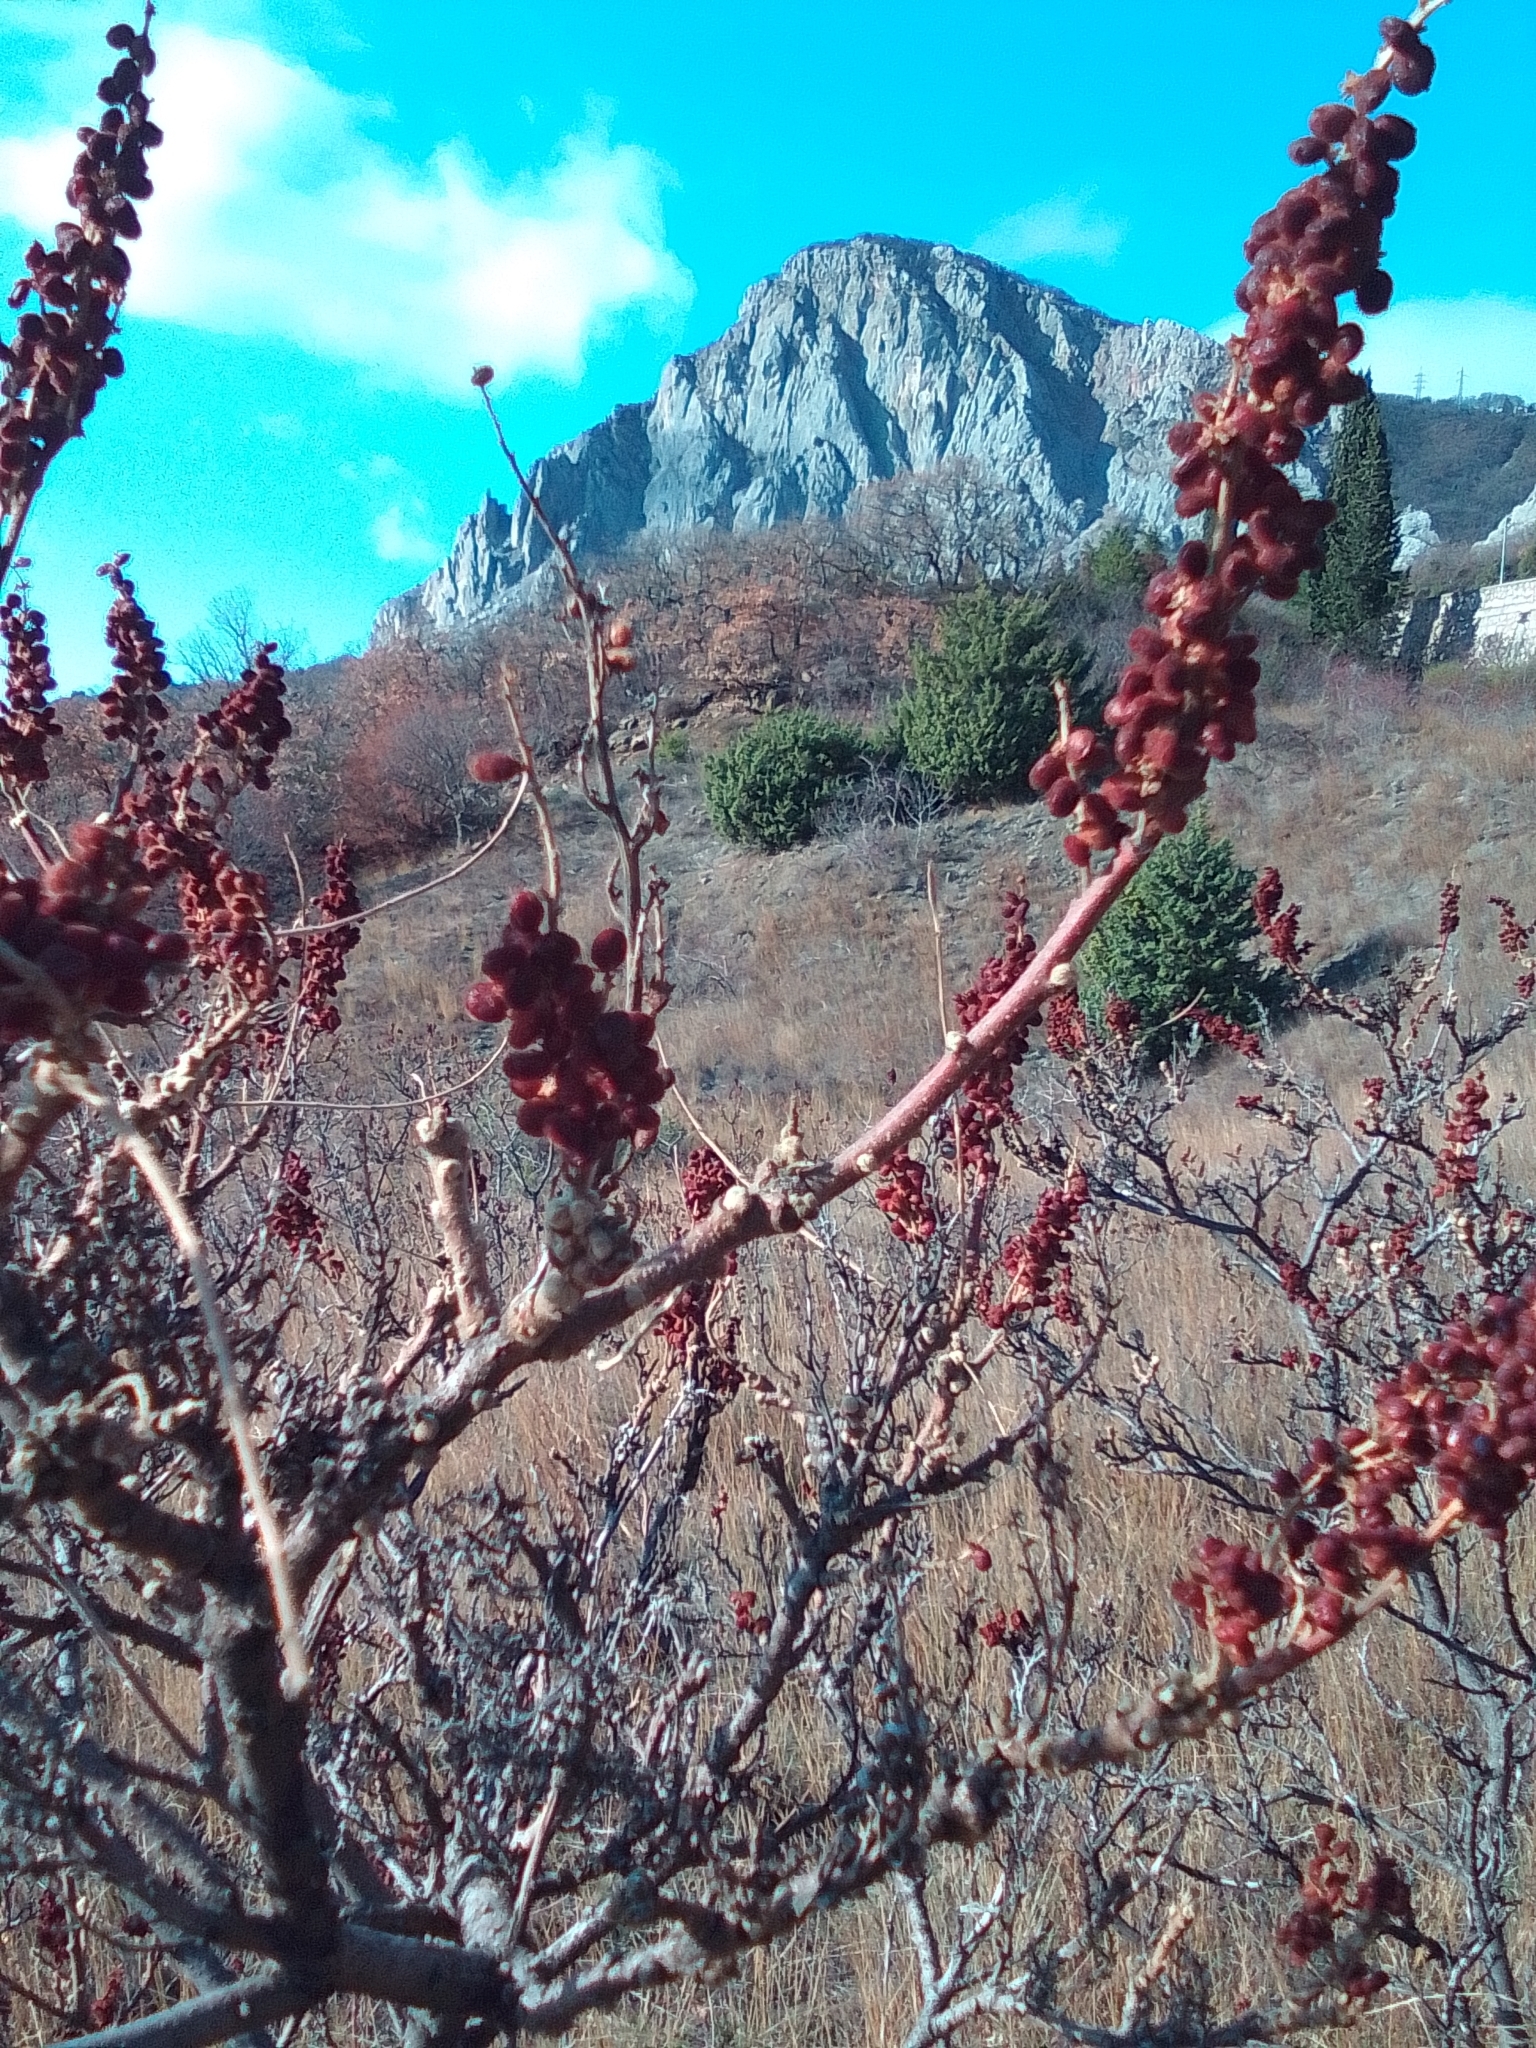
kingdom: Plantae
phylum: Tracheophyta
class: Magnoliopsida
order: Sapindales
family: Anacardiaceae
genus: Rhus
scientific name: Rhus coriaria
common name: Tanner's sumach
